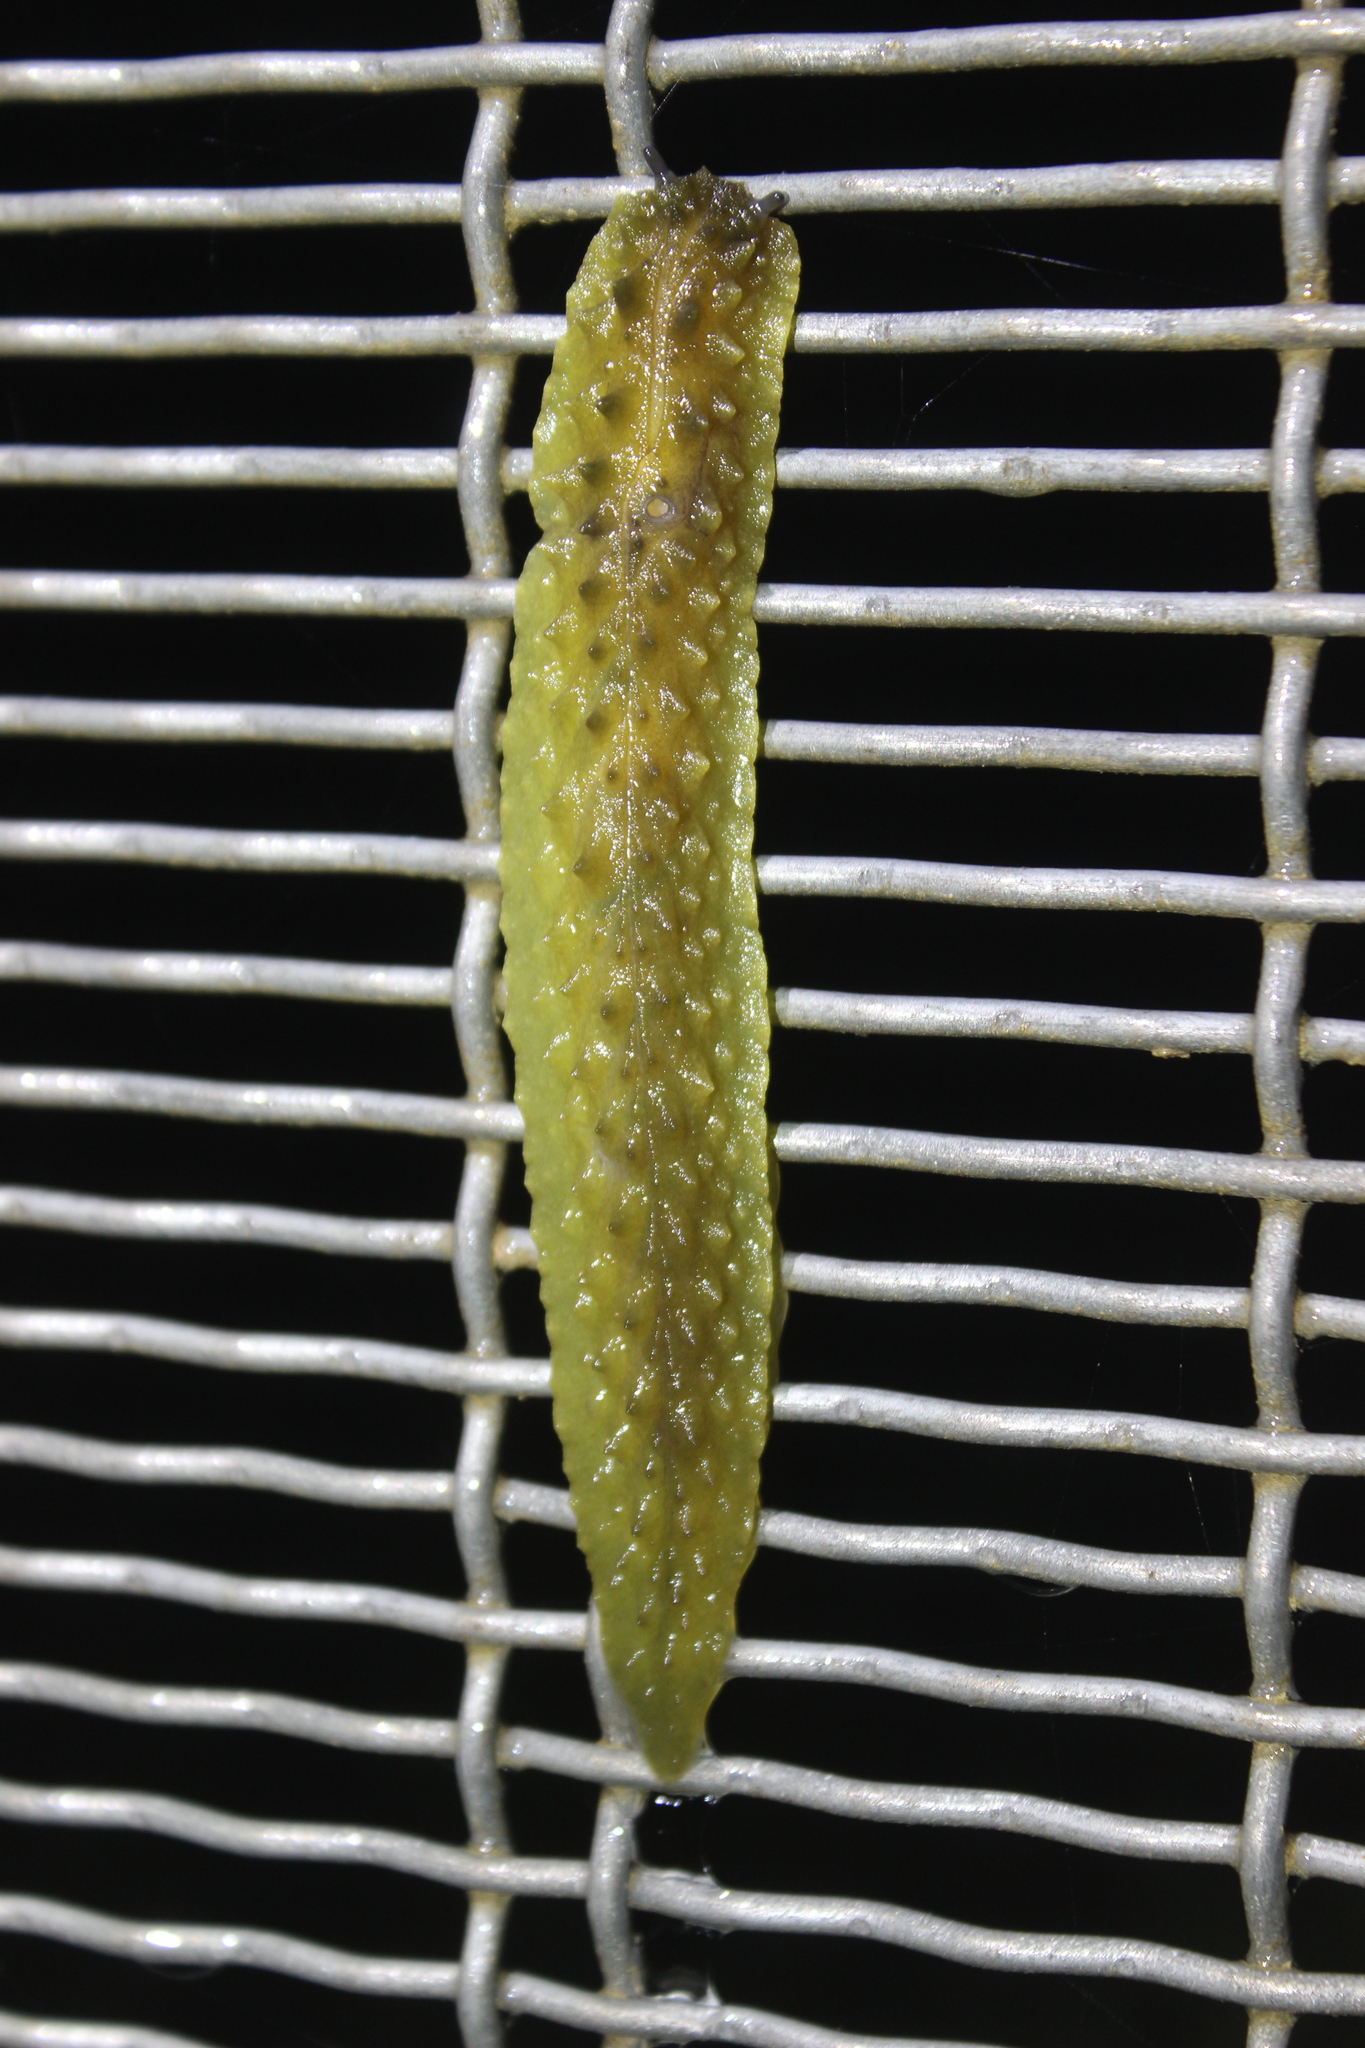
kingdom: Animalia
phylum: Mollusca
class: Gastropoda
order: Stylommatophora
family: Athoracophoridae
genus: Athoracophorus
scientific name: Athoracophorus papillatus
